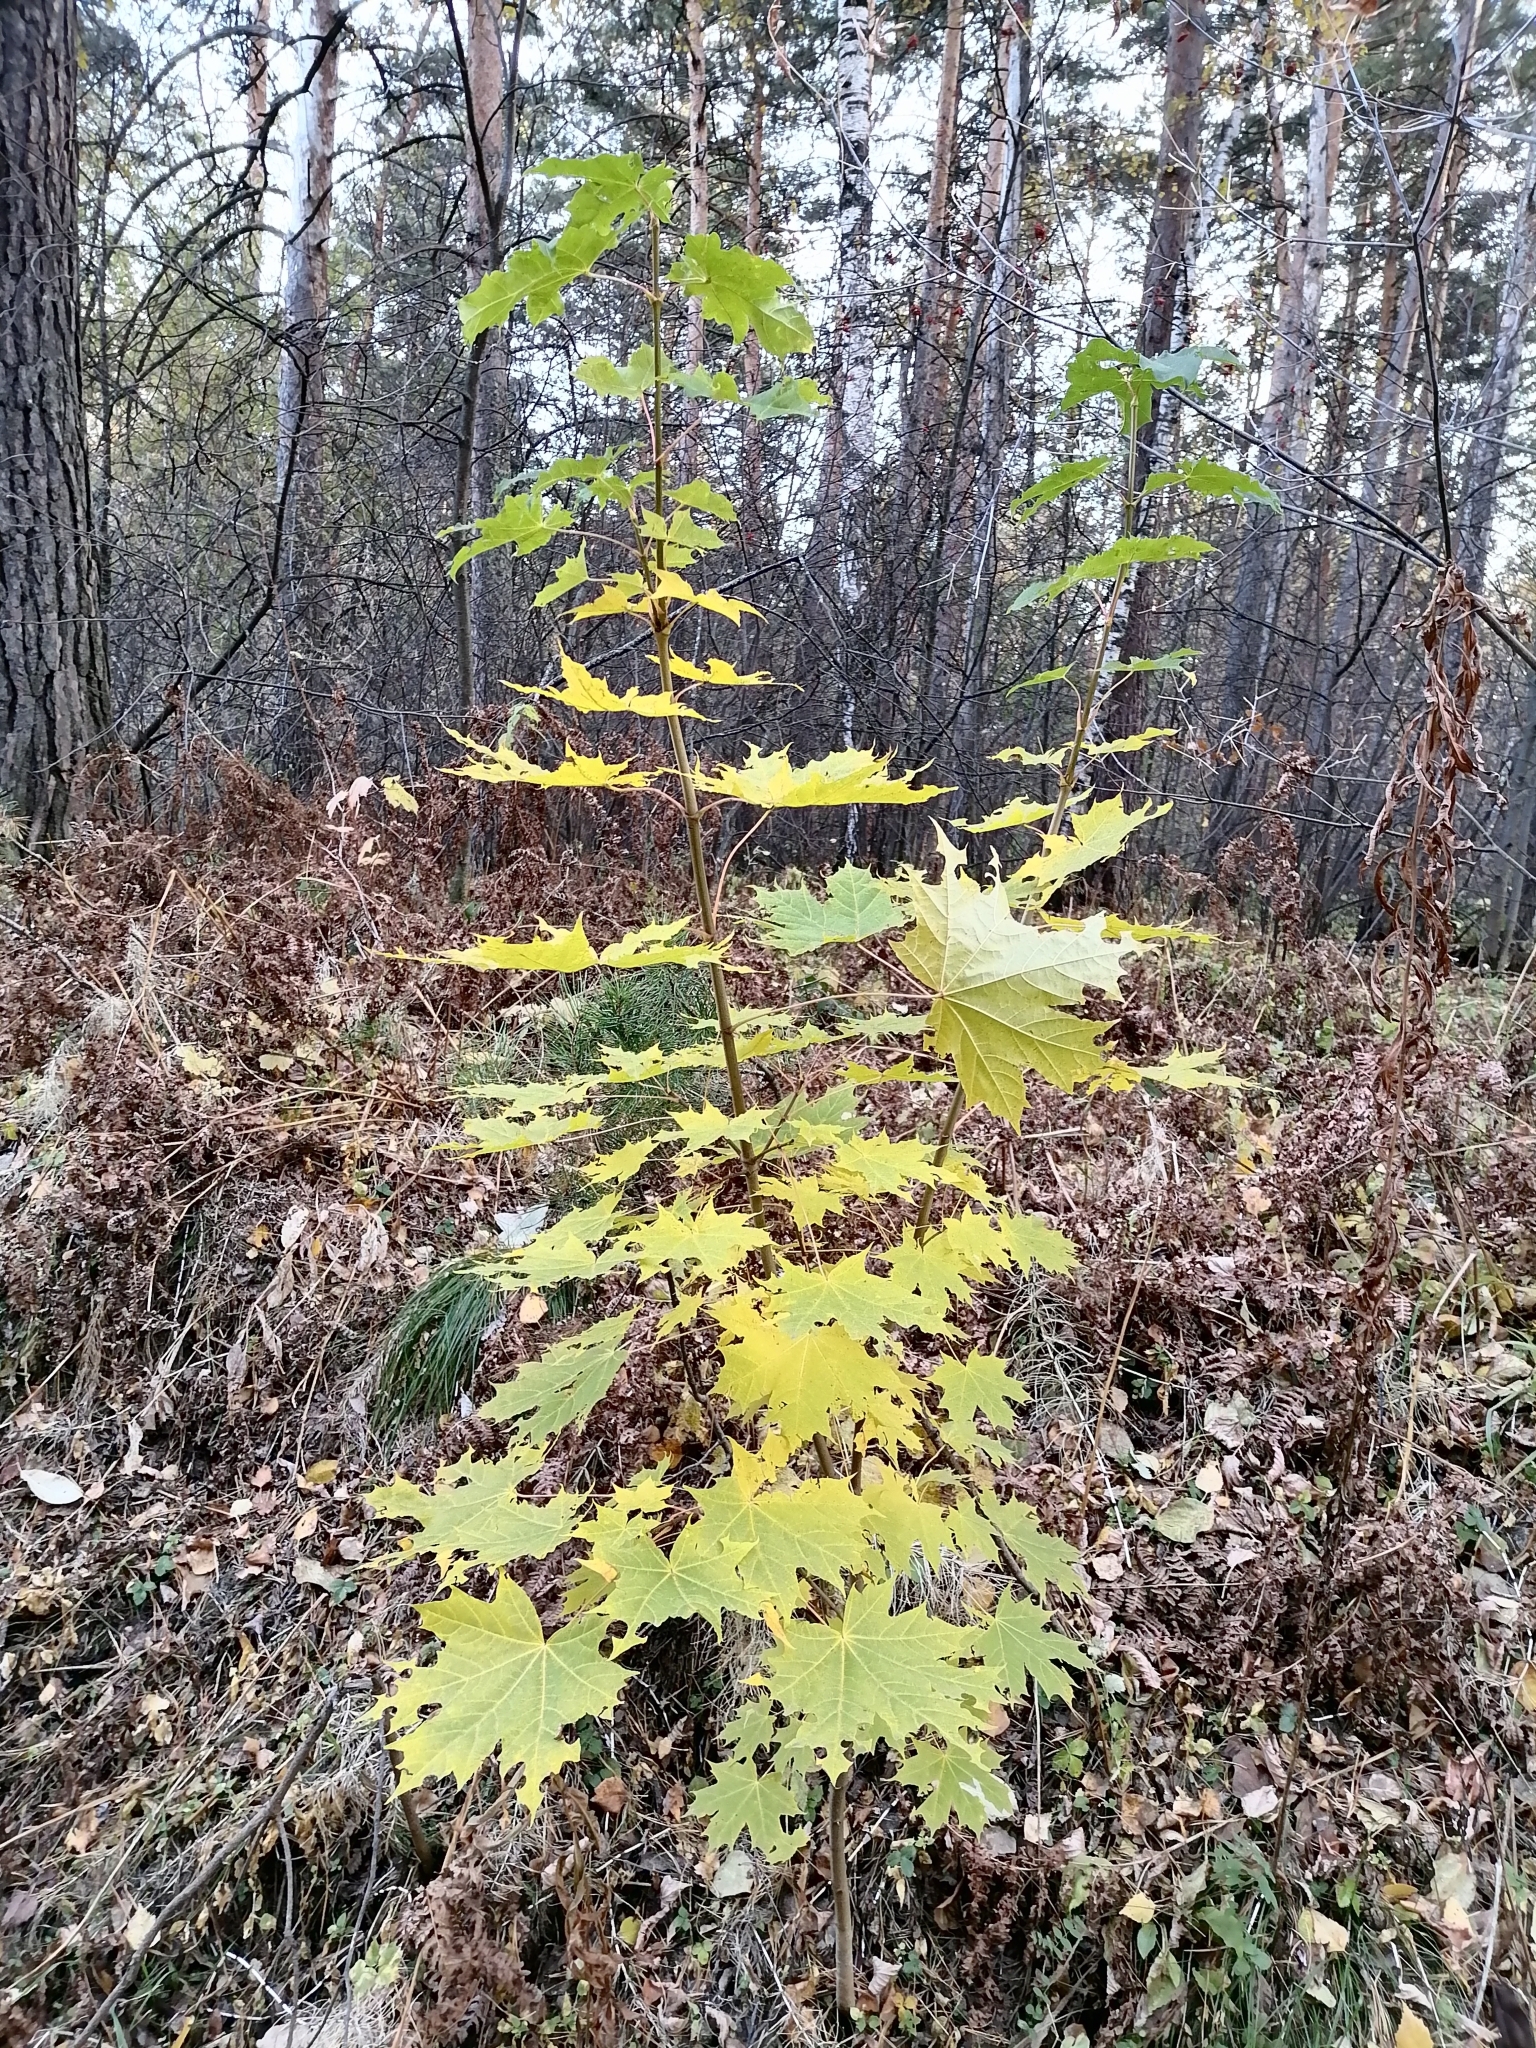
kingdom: Plantae
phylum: Tracheophyta
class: Magnoliopsida
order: Sapindales
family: Sapindaceae
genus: Acer
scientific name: Acer platanoides
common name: Norway maple
